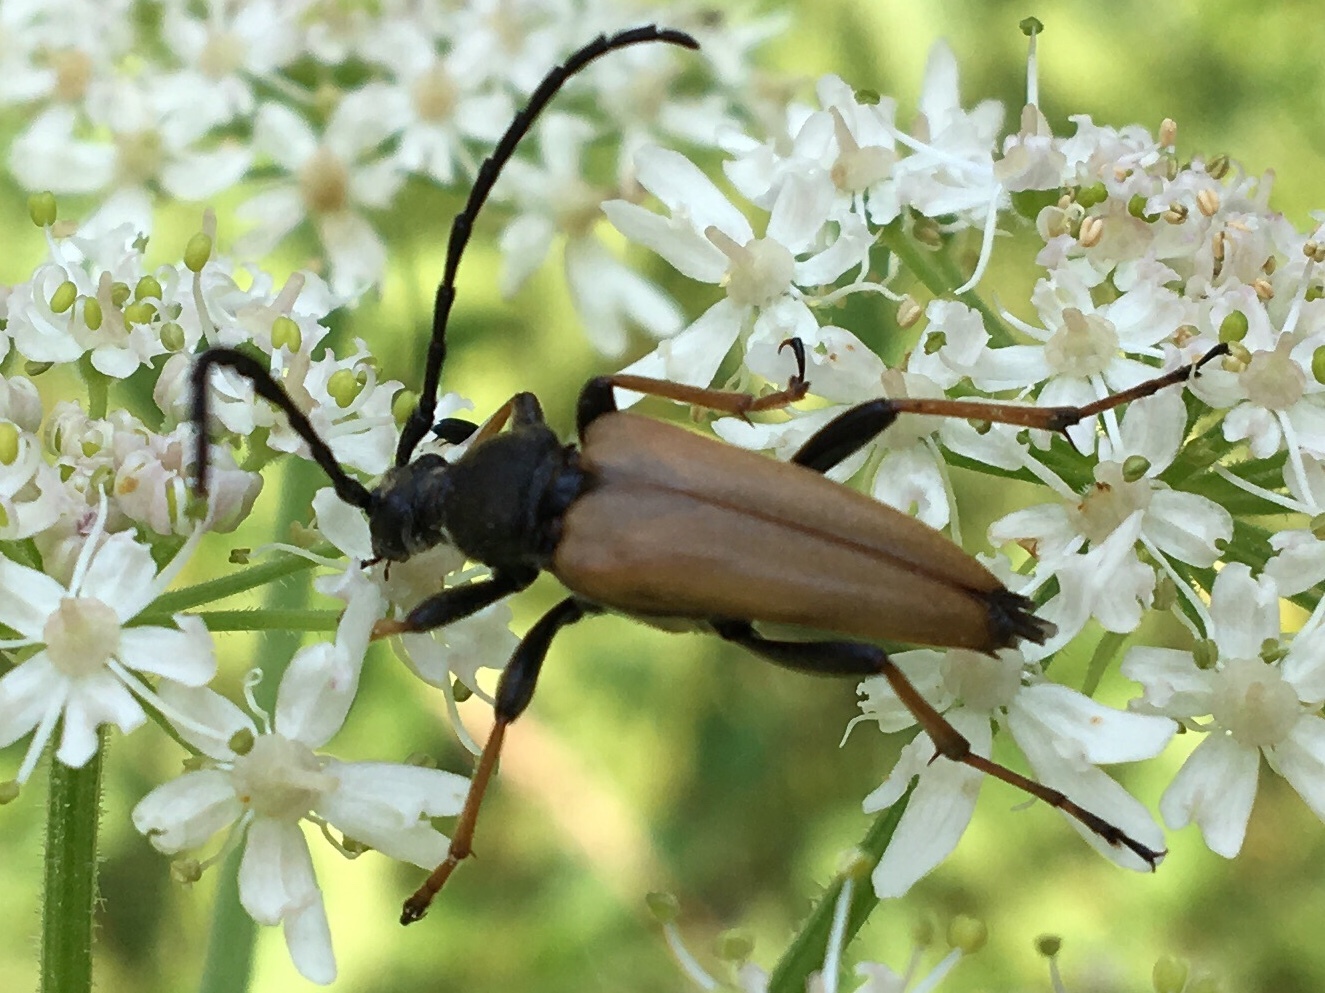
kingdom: Animalia
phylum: Arthropoda
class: Insecta
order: Coleoptera
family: Cerambycidae
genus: Stictoleptura
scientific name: Stictoleptura rubra
